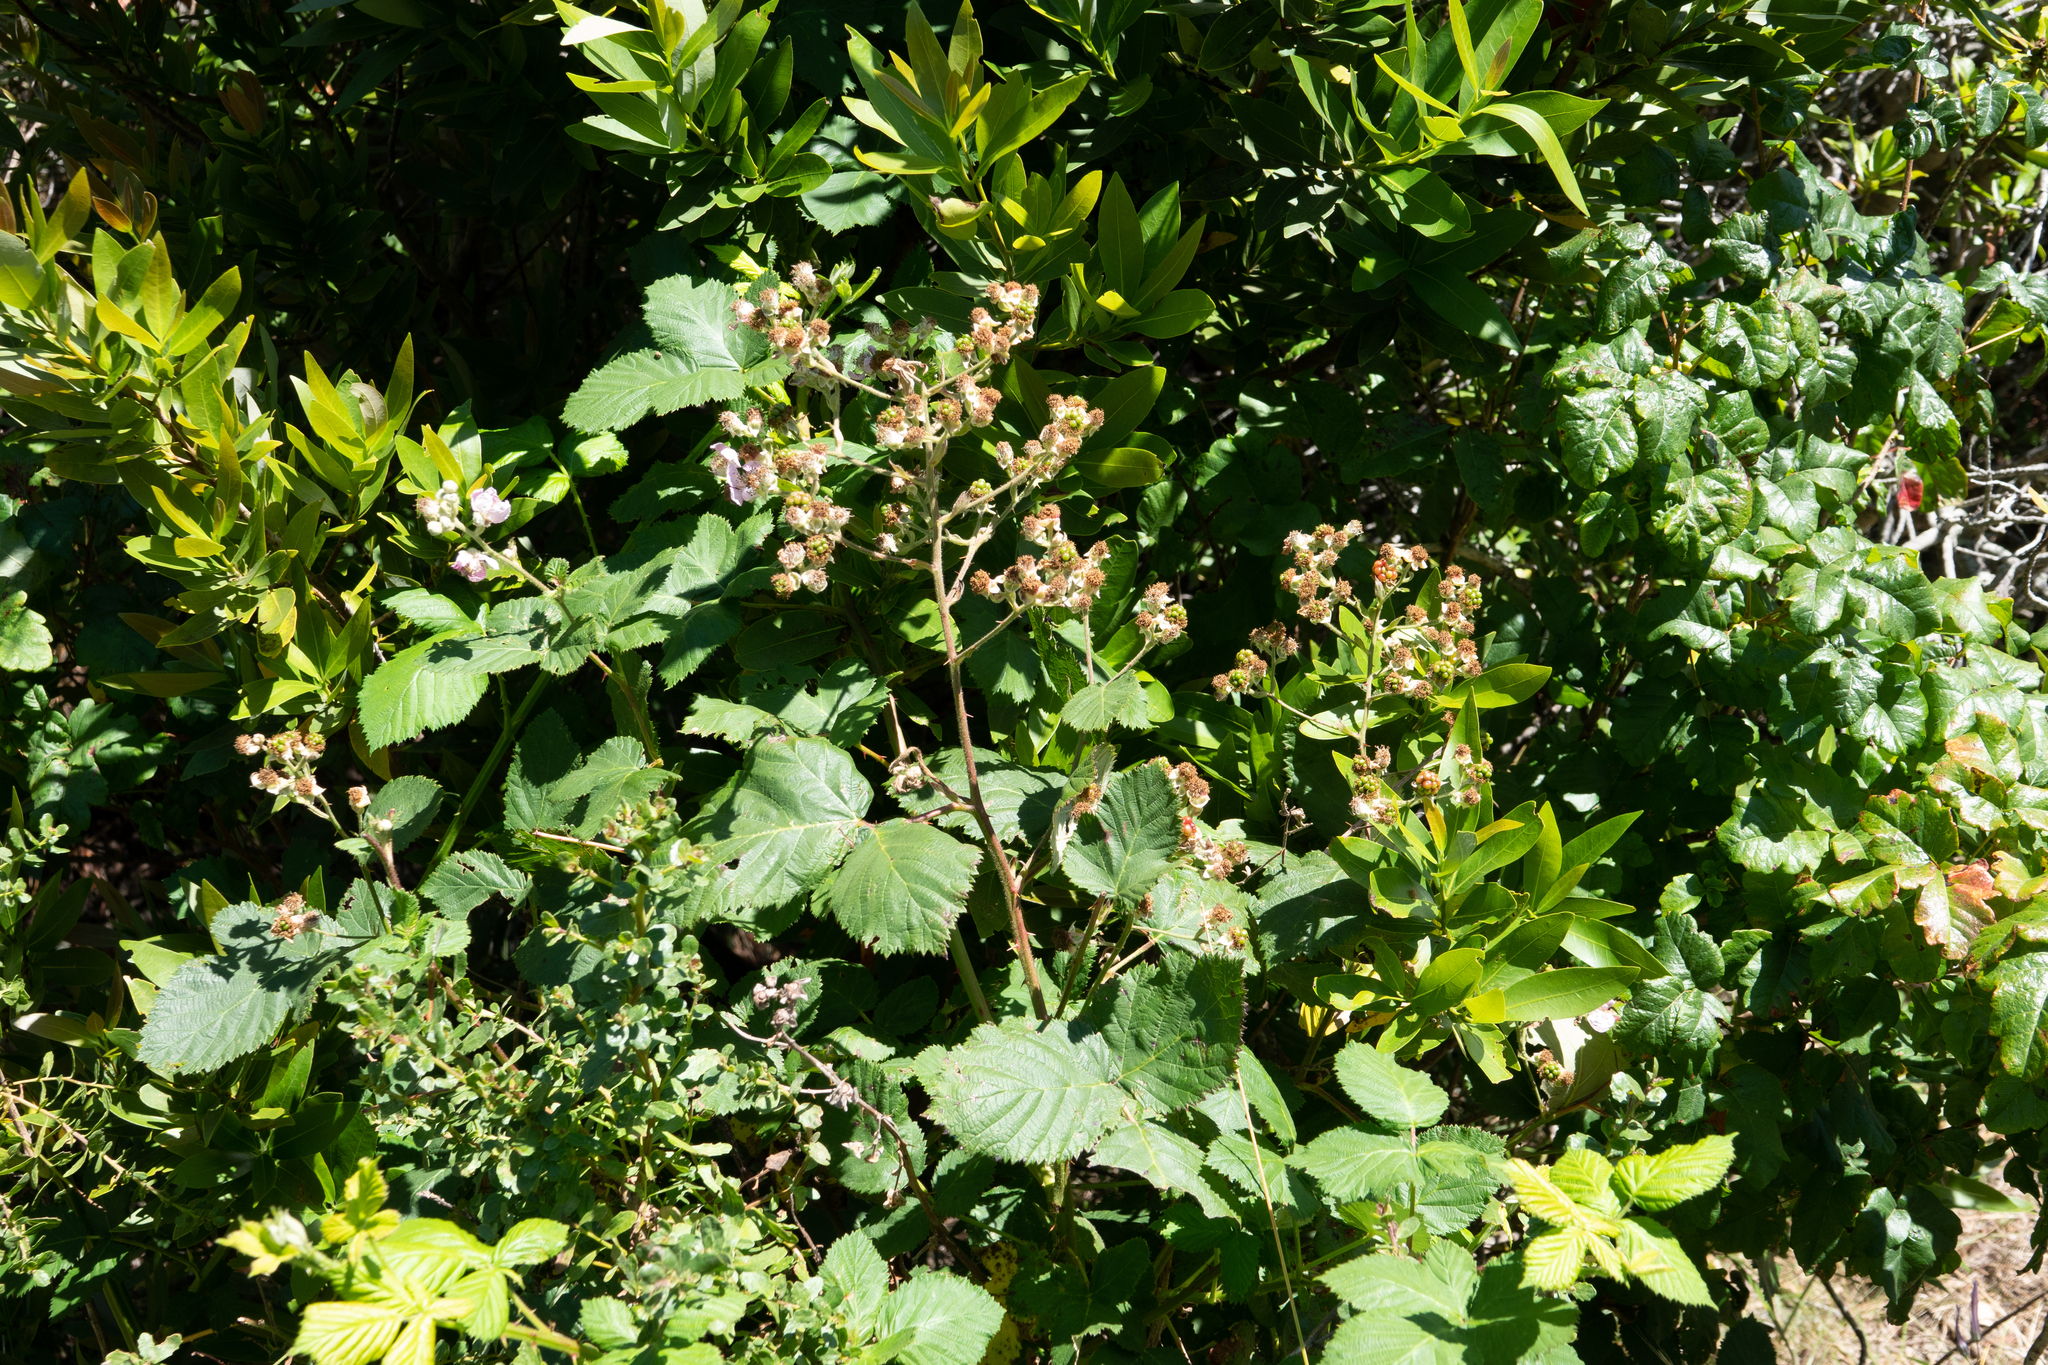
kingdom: Plantae
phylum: Tracheophyta
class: Magnoliopsida
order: Rosales
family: Rosaceae
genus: Rubus
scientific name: Rubus armeniacus
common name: Himalayan blackberry
